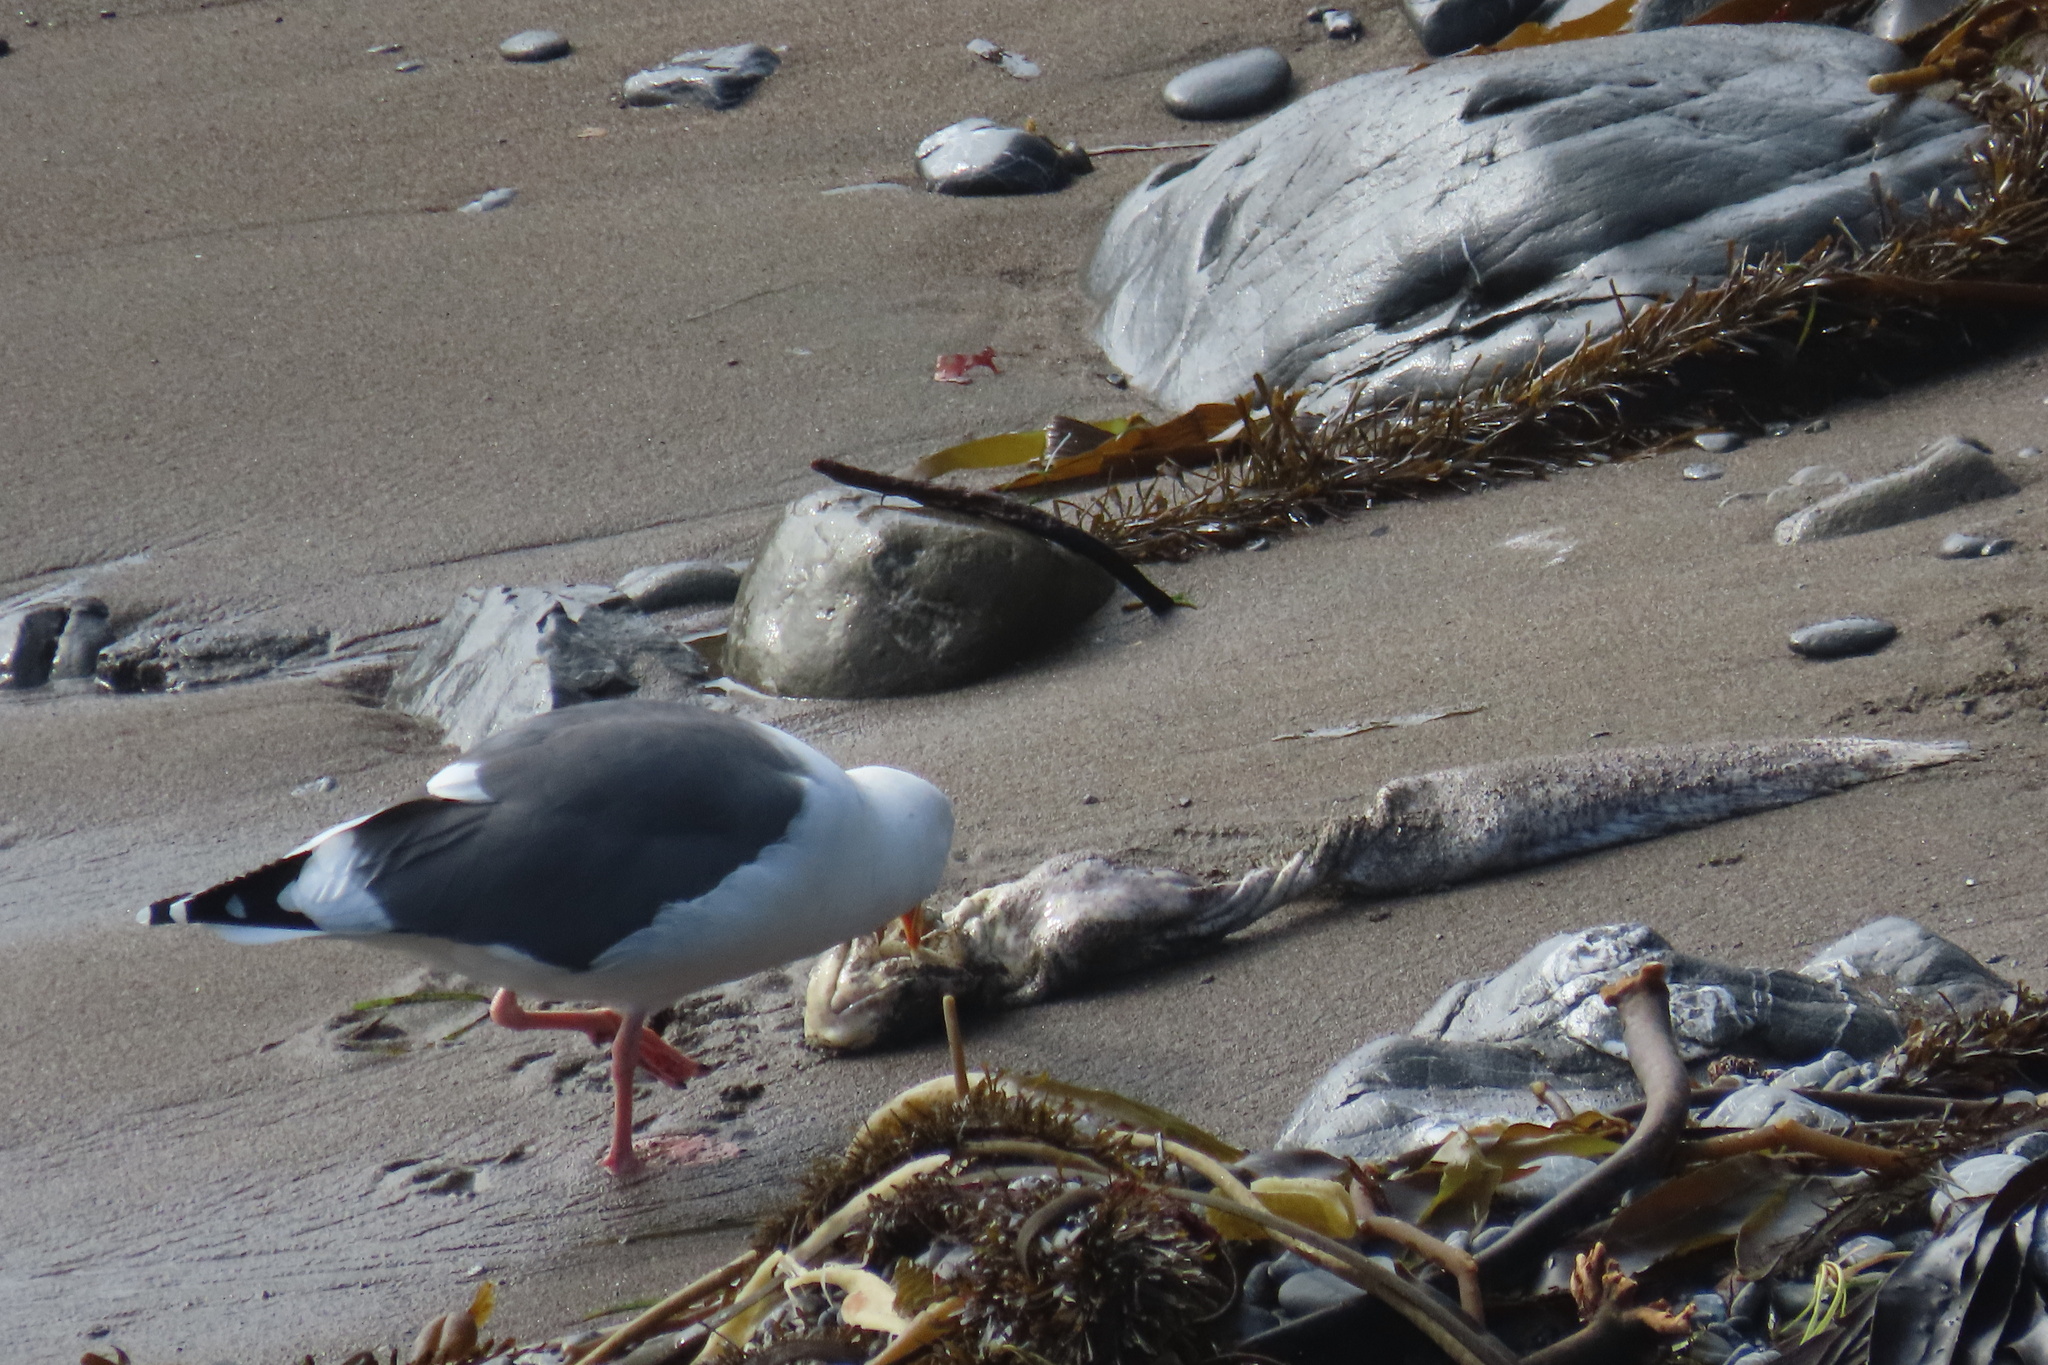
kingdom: Animalia
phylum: Chordata
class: Aves
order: Charadriiformes
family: Laridae
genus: Larus
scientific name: Larus occidentalis
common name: Western gull
